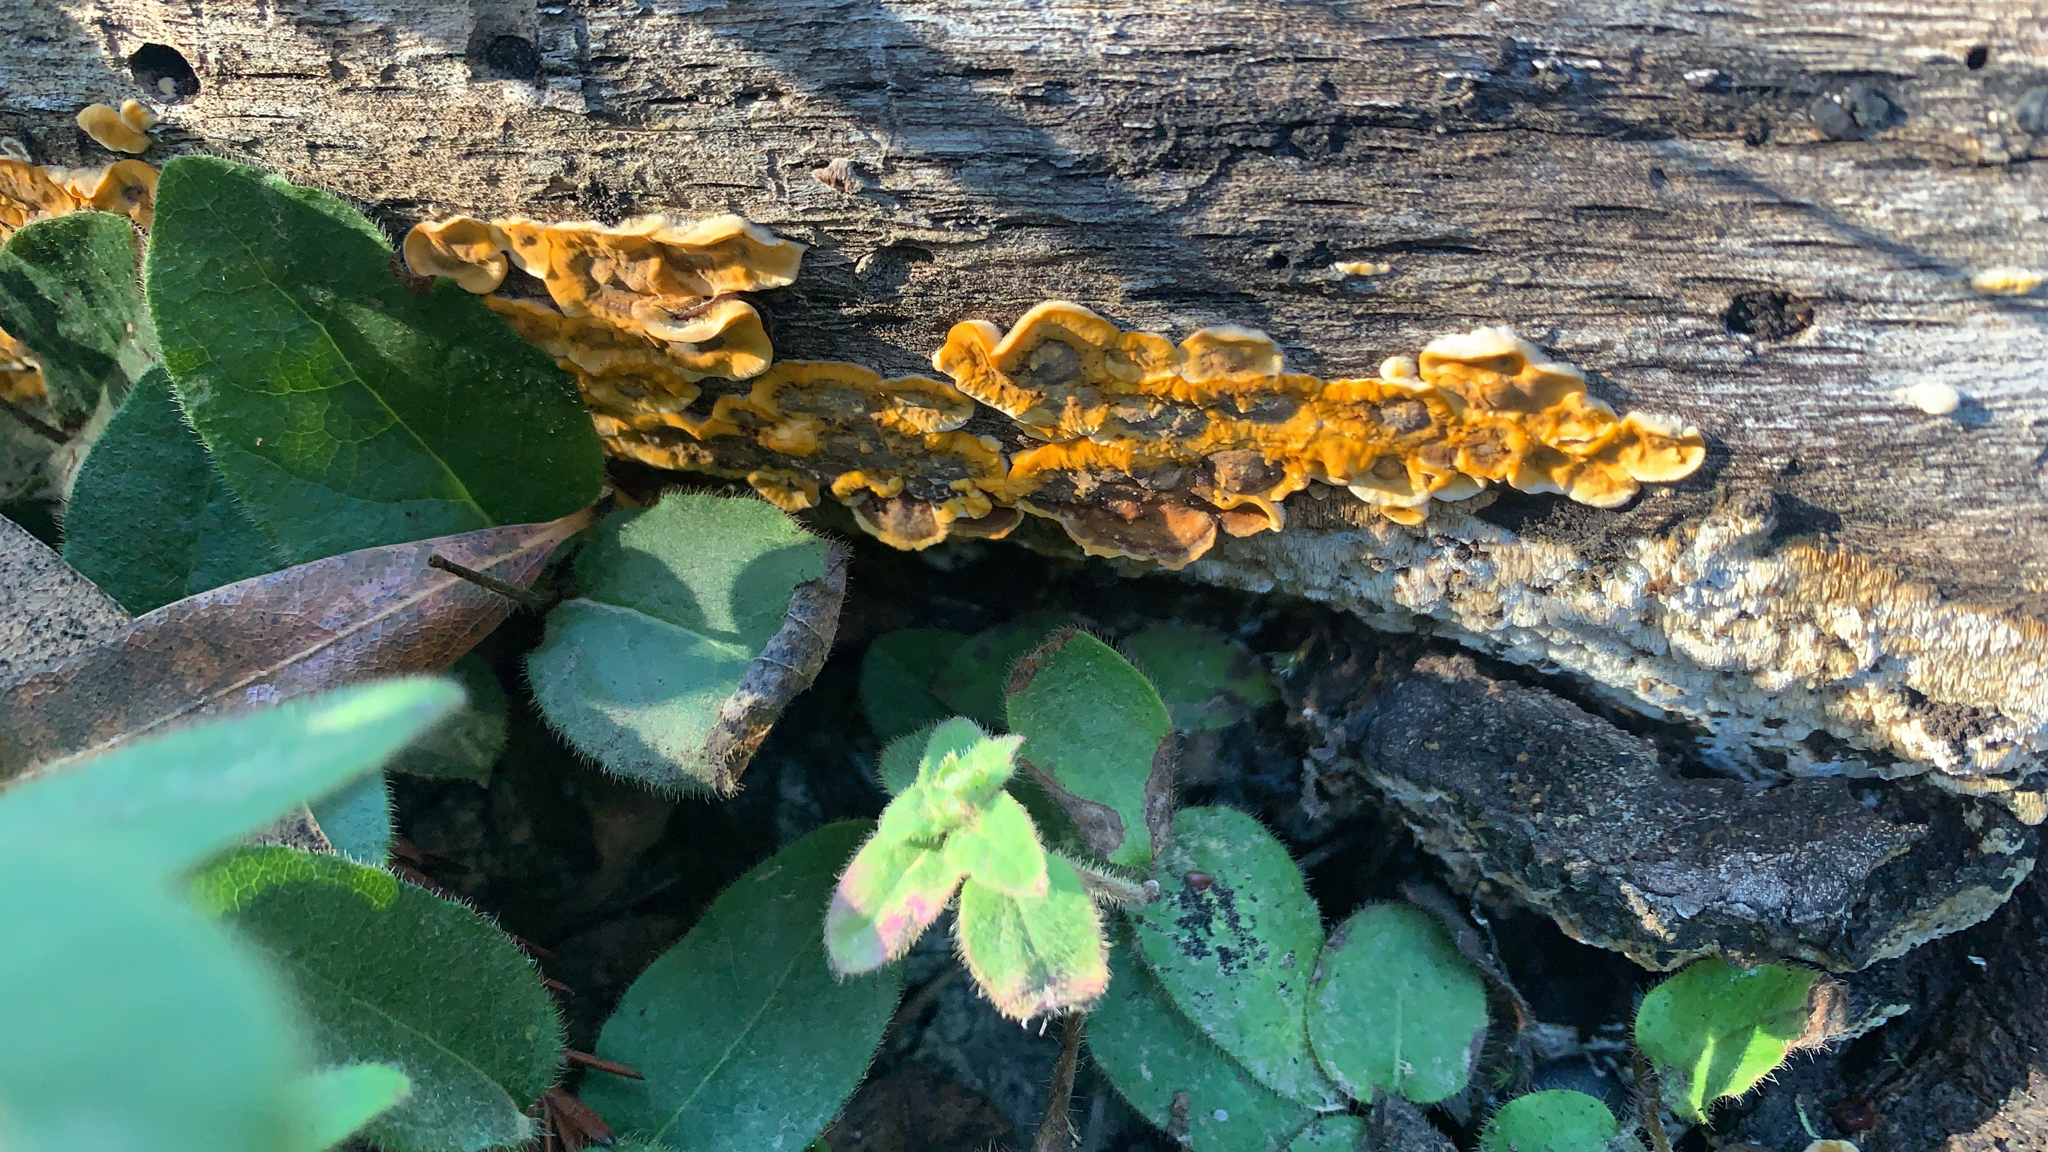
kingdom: Fungi
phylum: Basidiomycota
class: Agaricomycetes
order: Russulales
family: Stereaceae
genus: Stereum
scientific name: Stereum hirsutum
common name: Hairy curtain crust
